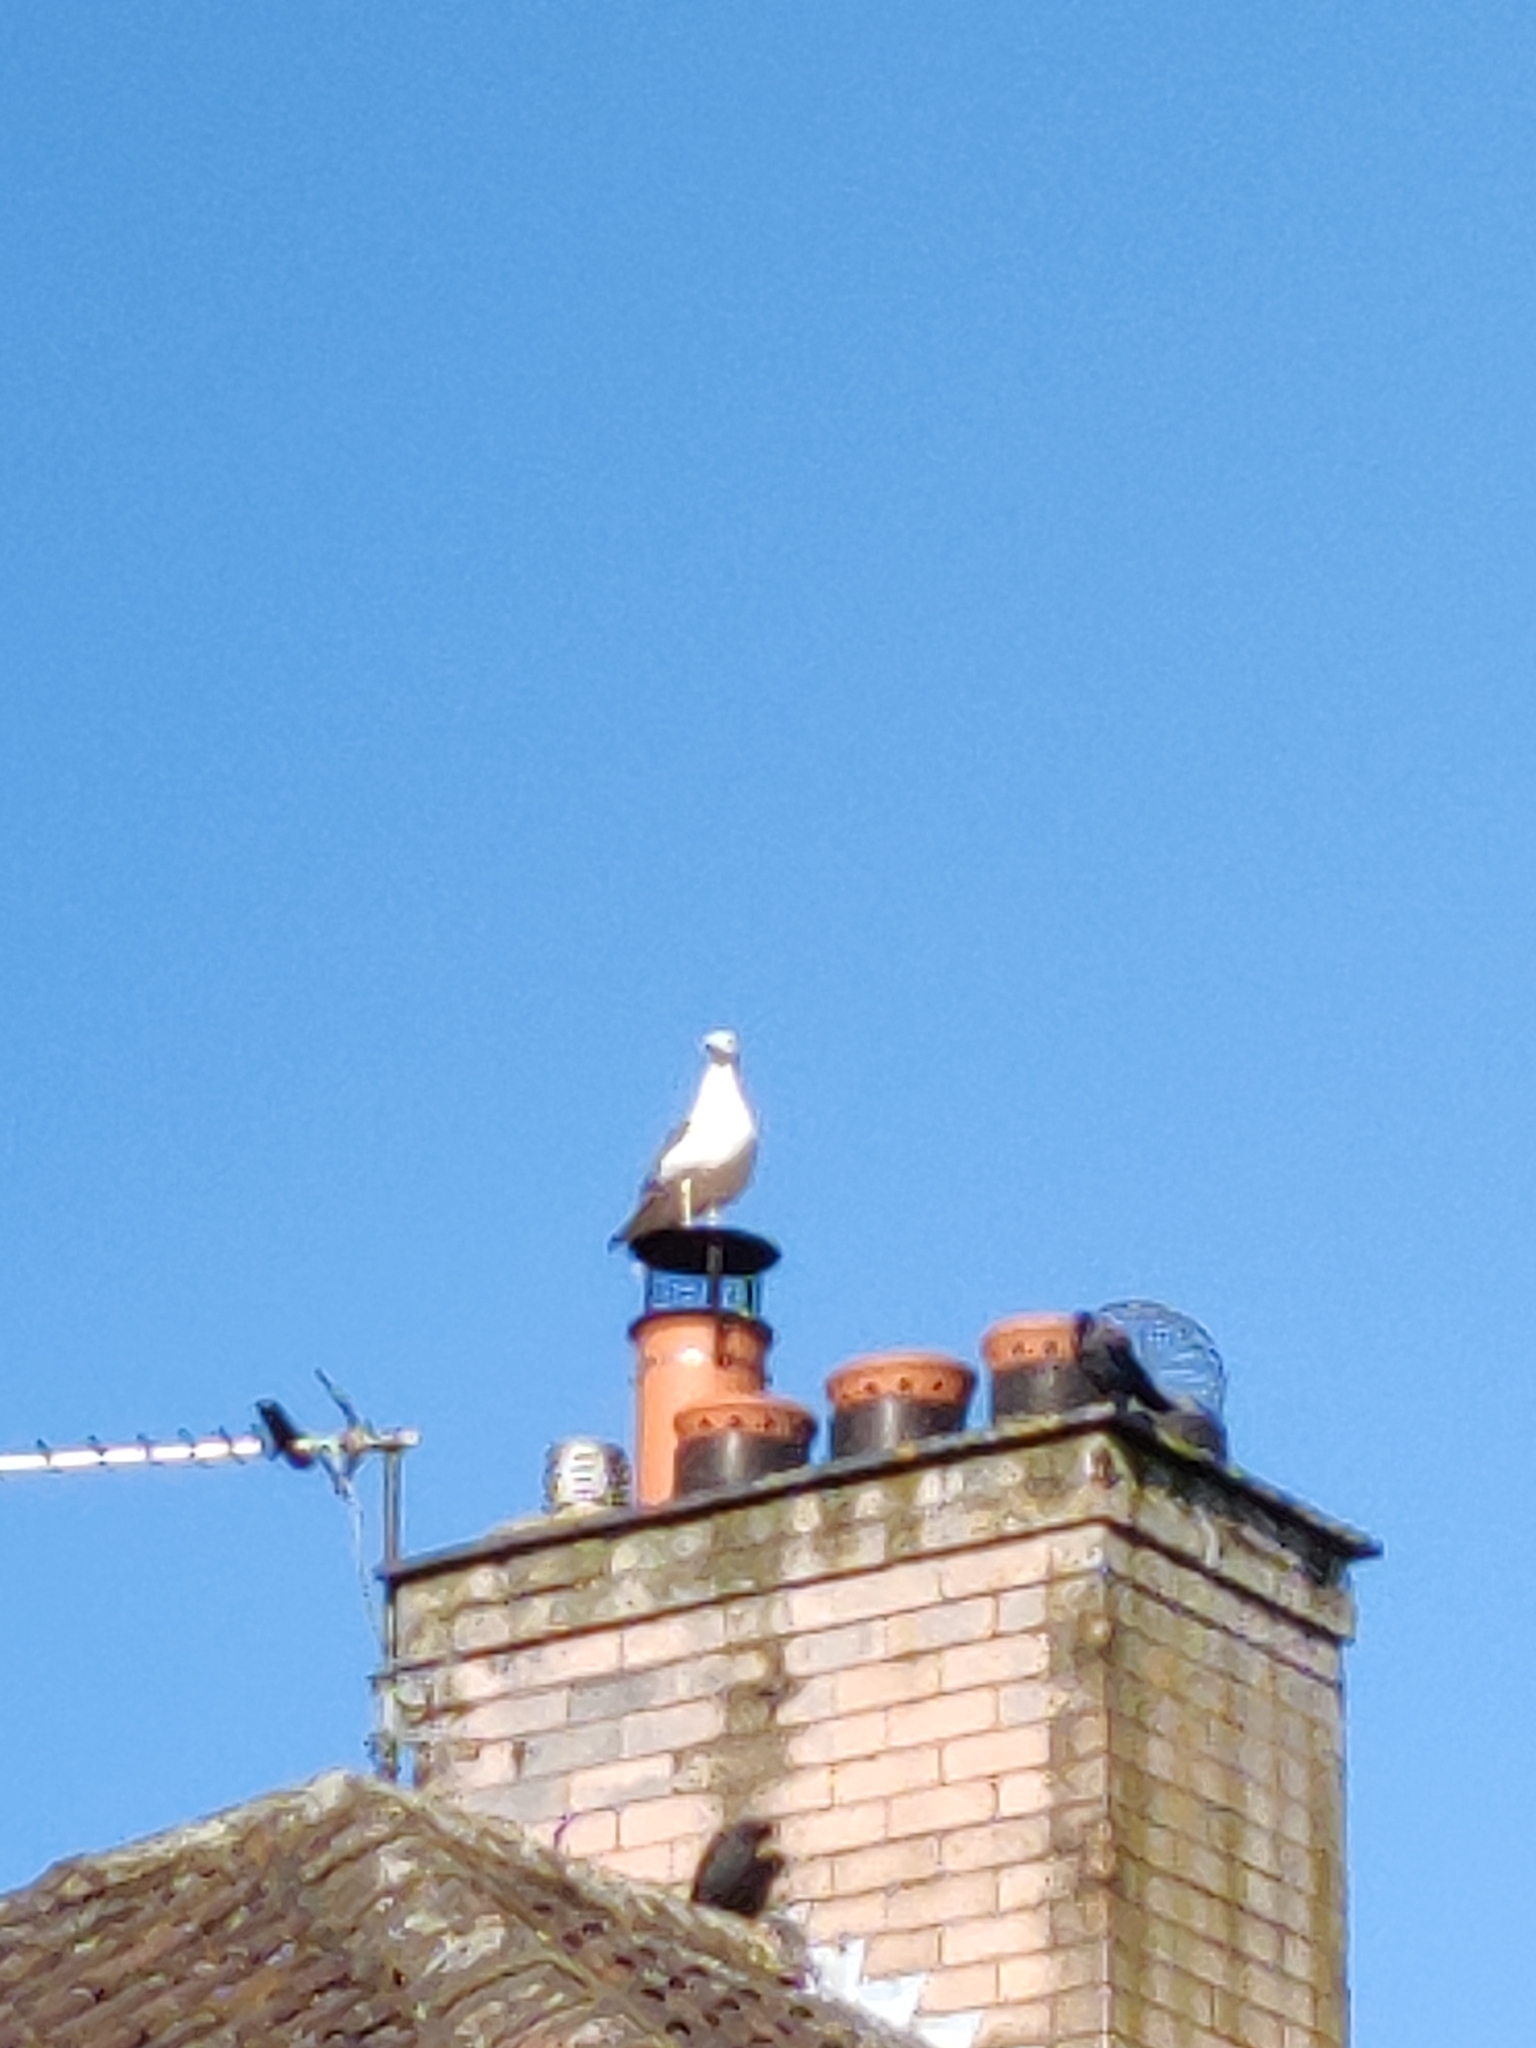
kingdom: Animalia
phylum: Chordata
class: Aves
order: Charadriiformes
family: Laridae
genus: Larus
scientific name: Larus fuscus
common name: Lesser black-backed gull
